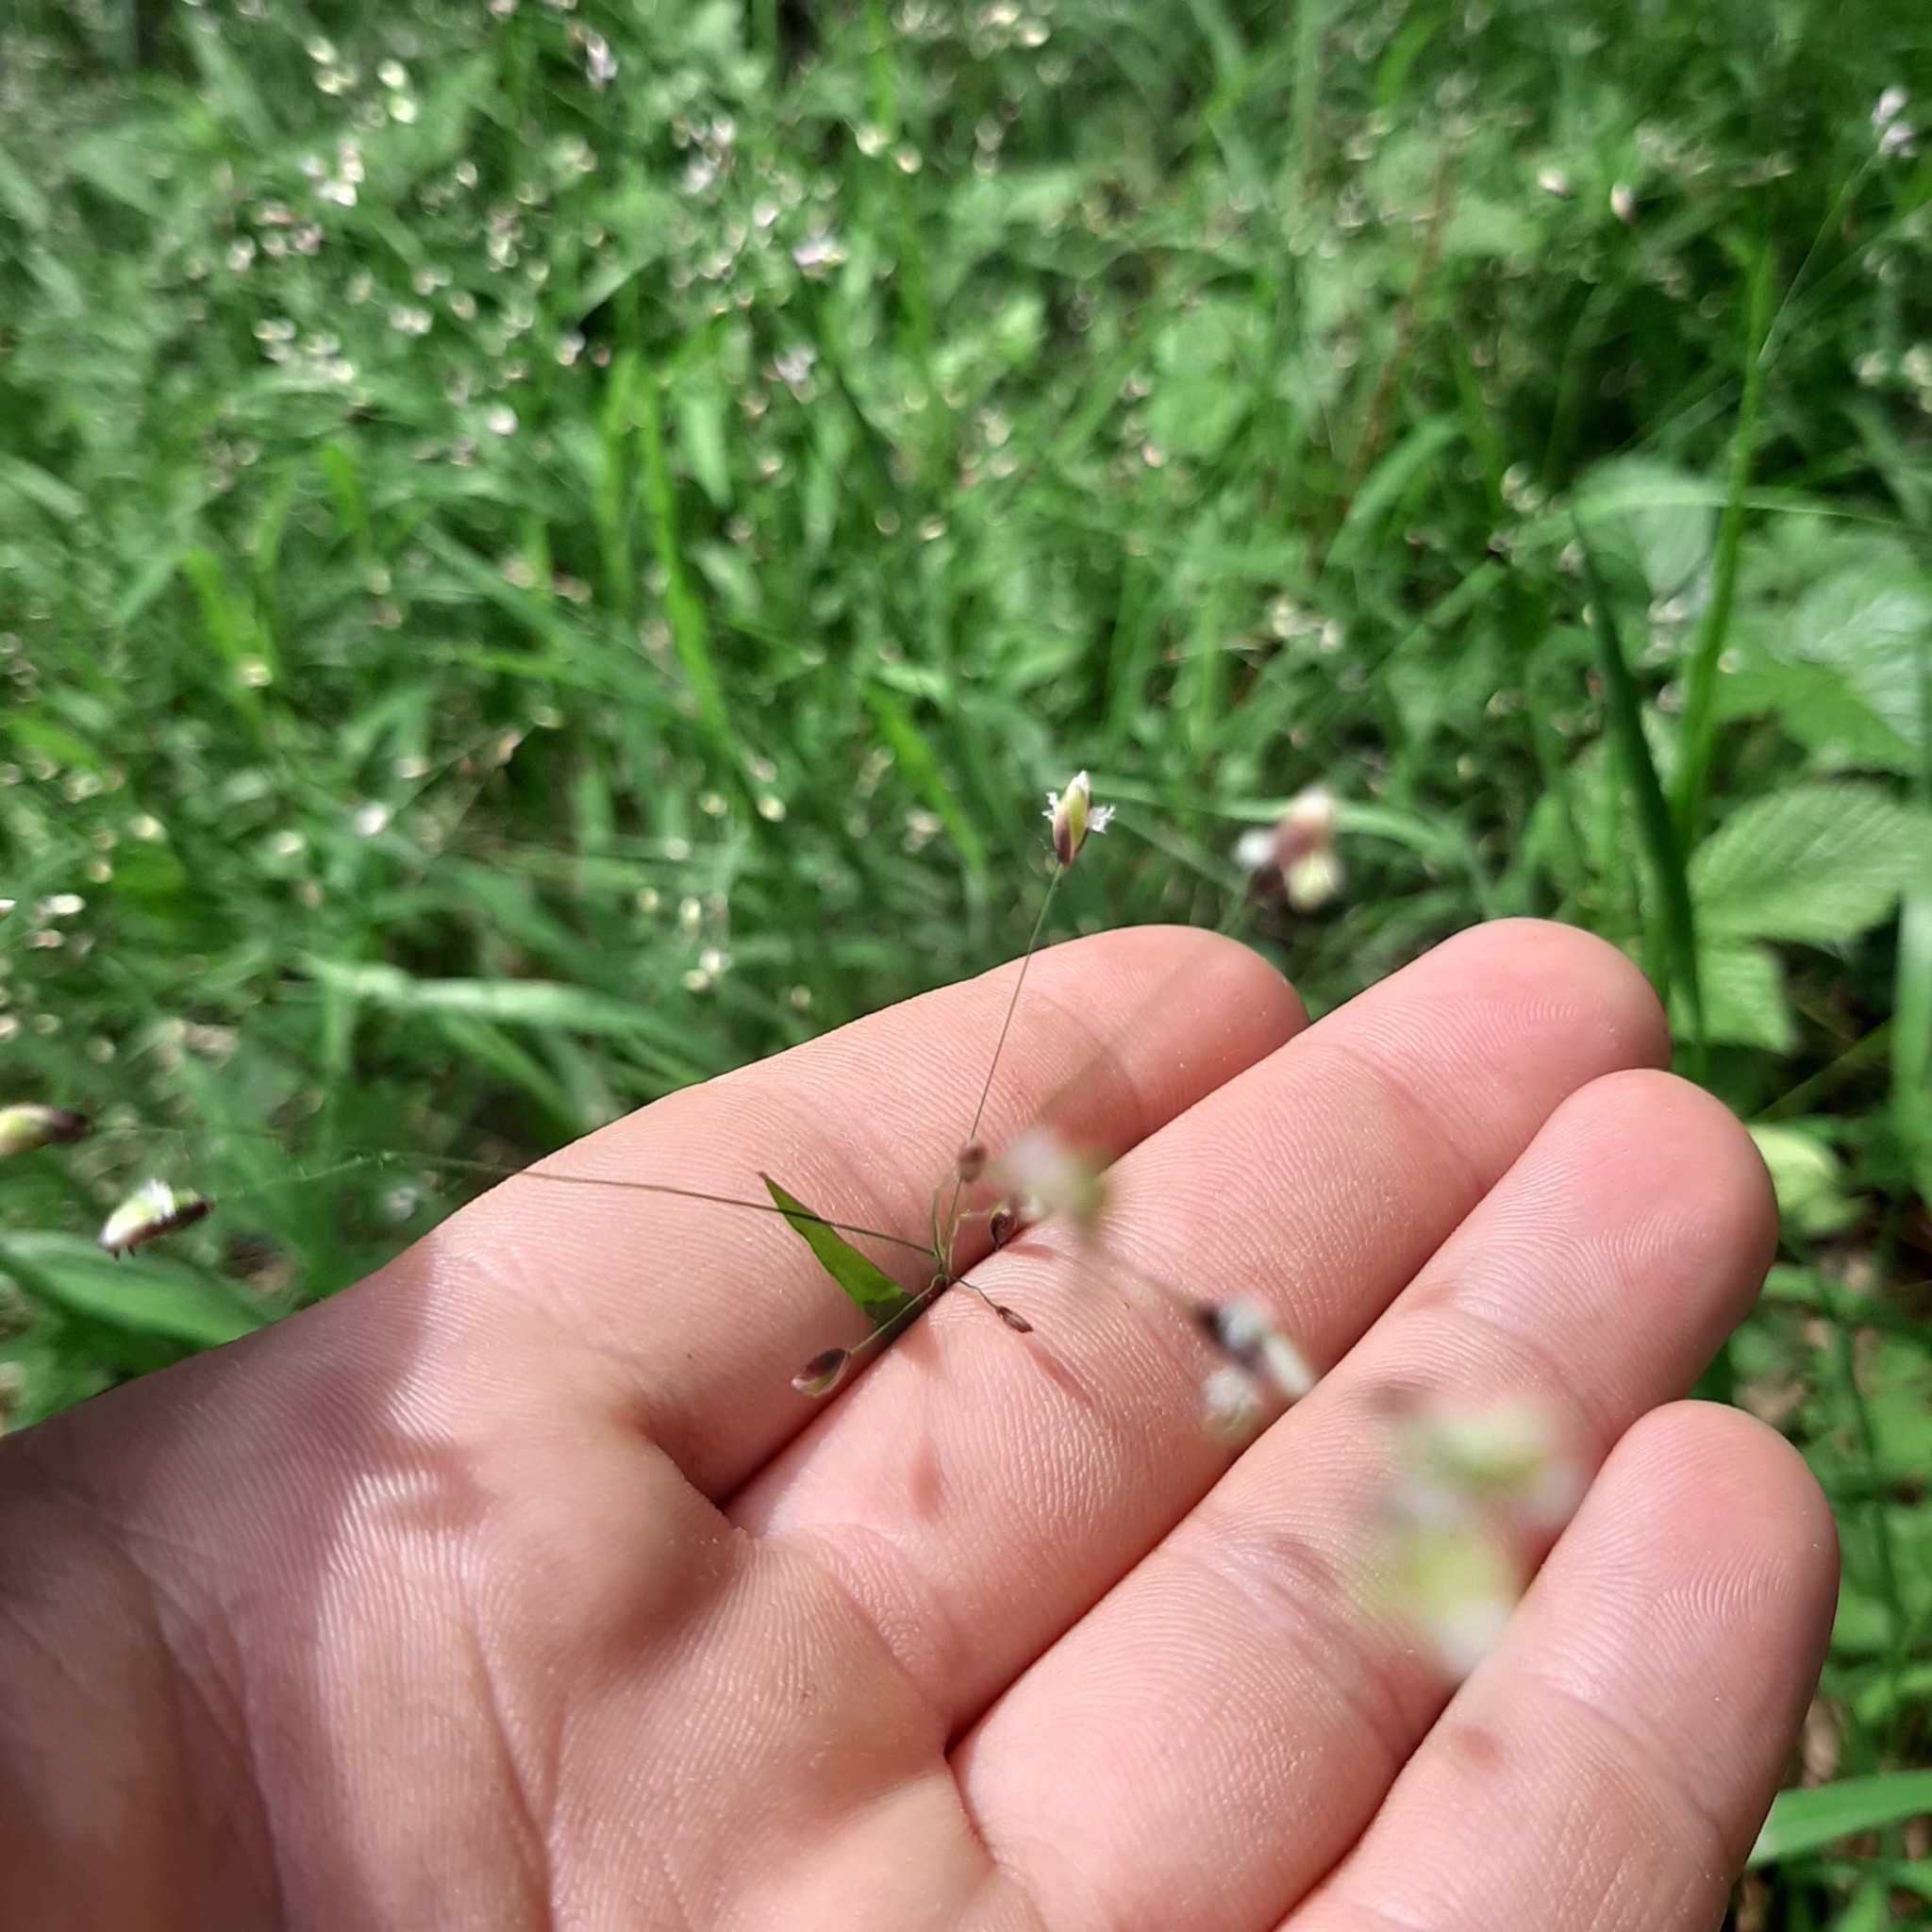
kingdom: Plantae
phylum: Tracheophyta
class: Liliopsida
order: Poales
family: Poaceae
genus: Melica
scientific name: Melica uniflora
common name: Wood melick
